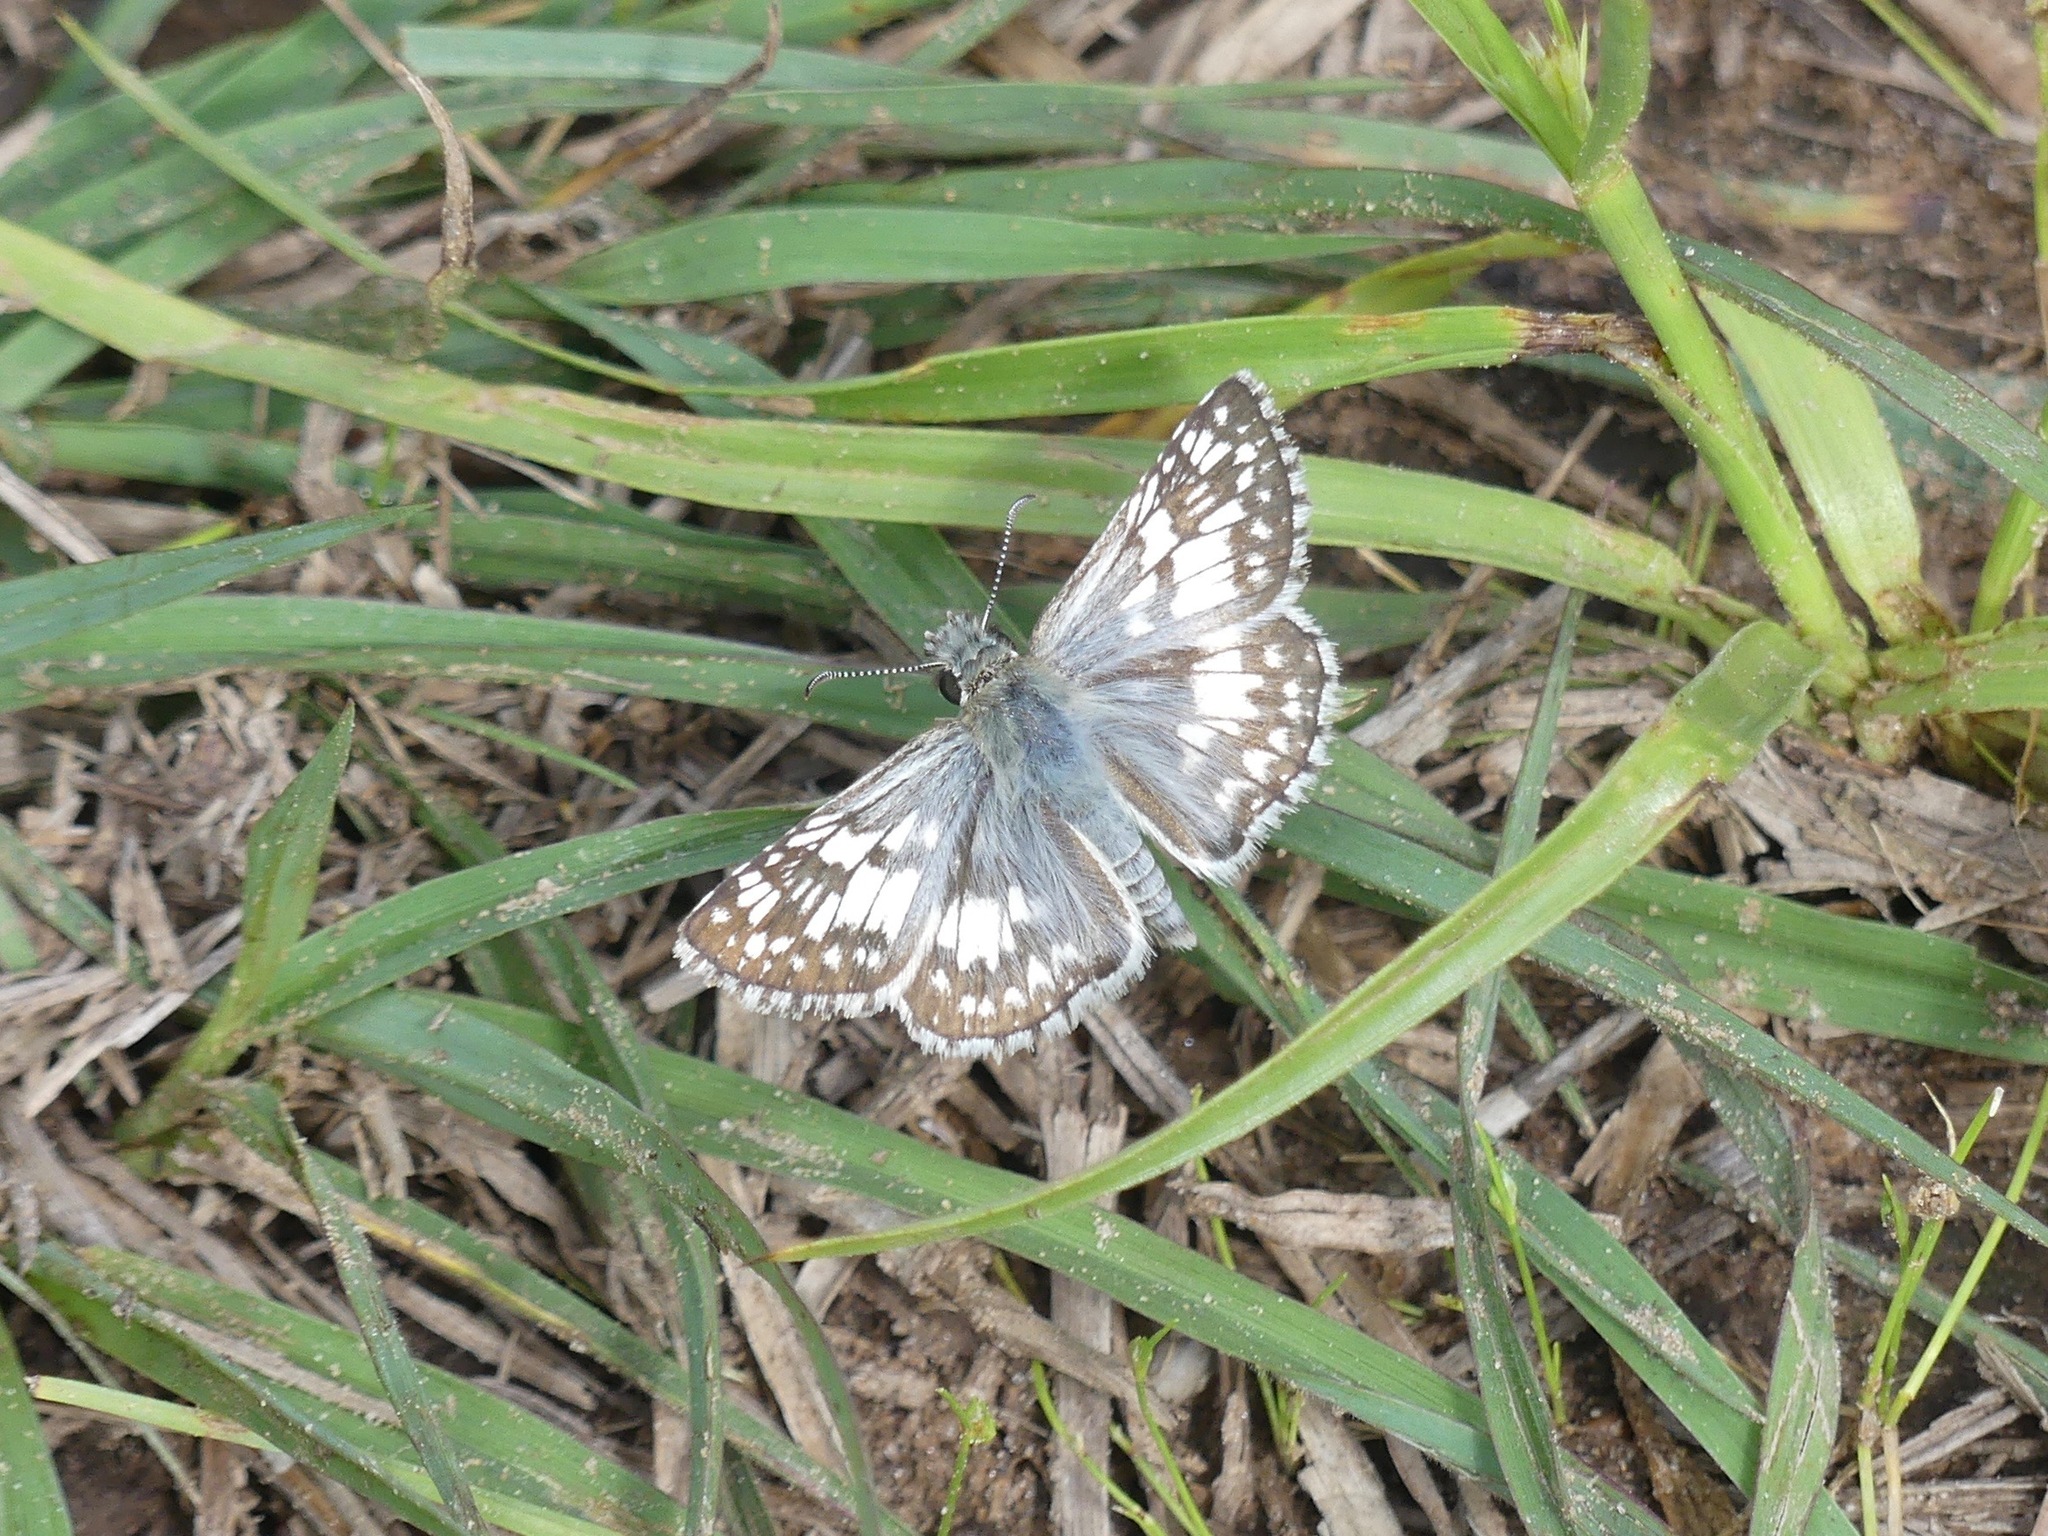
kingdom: Animalia
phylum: Arthropoda
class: Insecta
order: Lepidoptera
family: Hesperiidae
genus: Burnsius
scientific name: Burnsius
